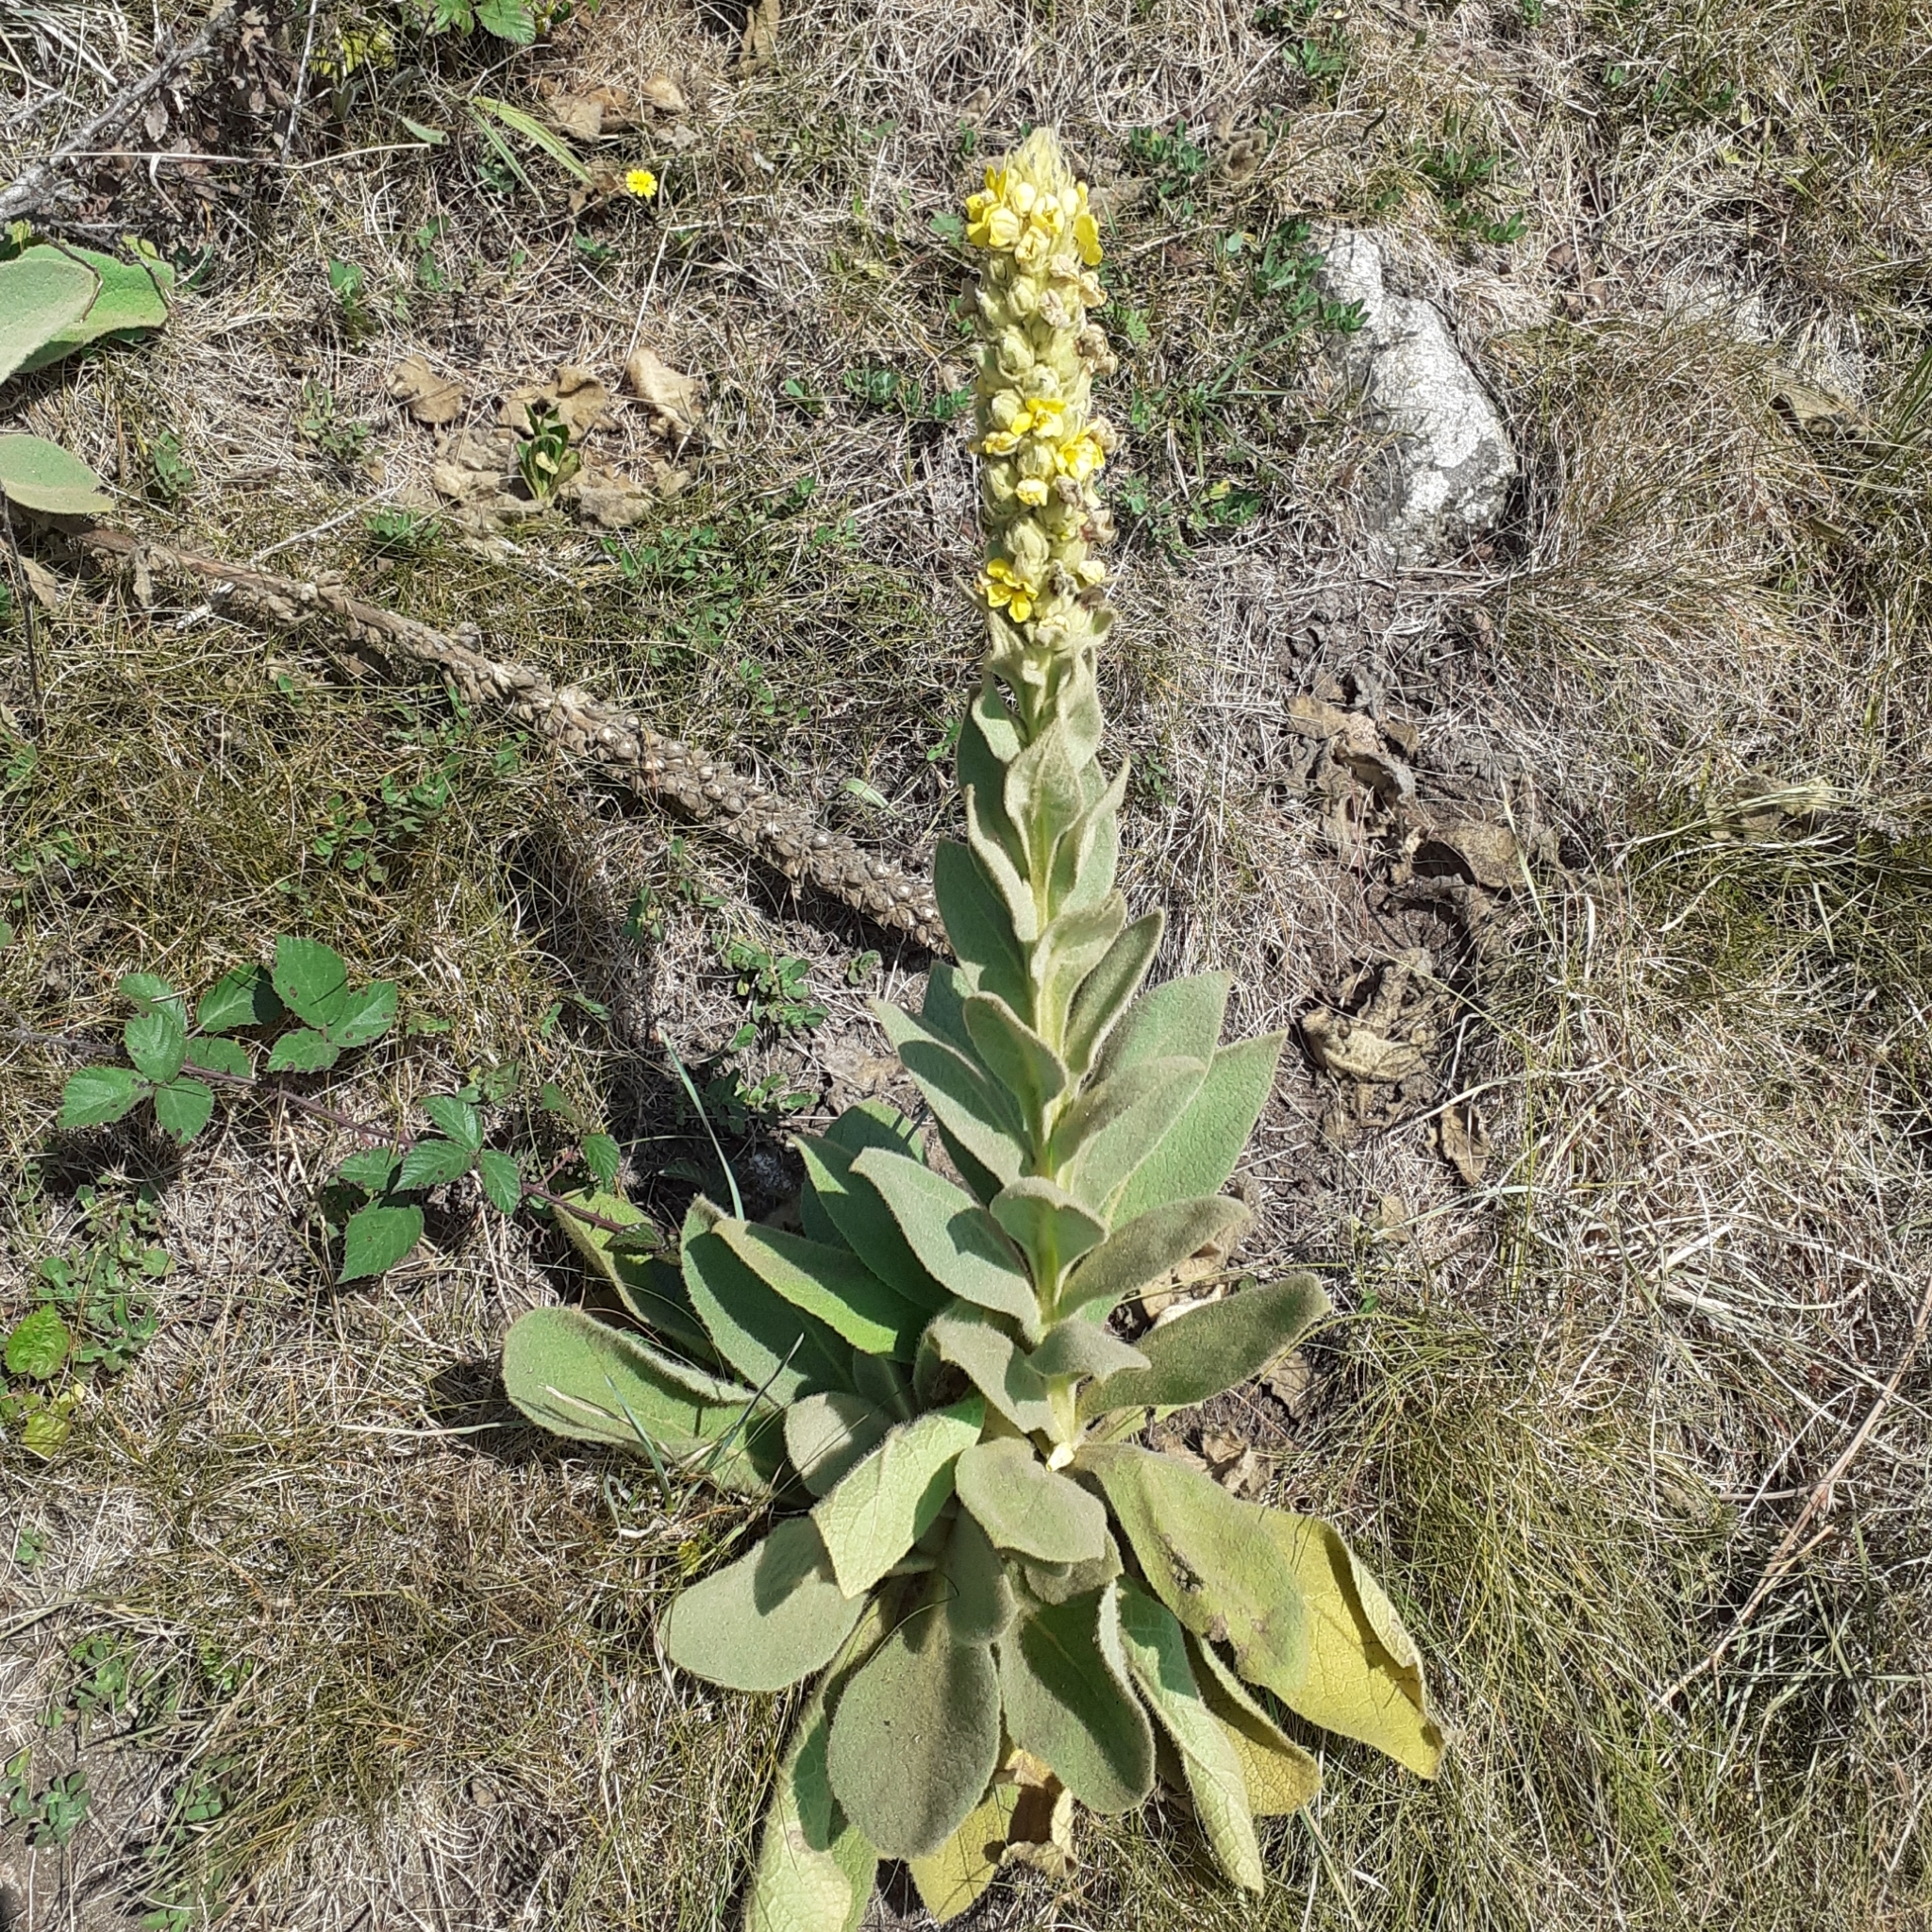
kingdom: Plantae
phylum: Tracheophyta
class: Magnoliopsida
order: Lamiales
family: Scrophulariaceae
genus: Verbascum
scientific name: Verbascum thapsus
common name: Common mullein
